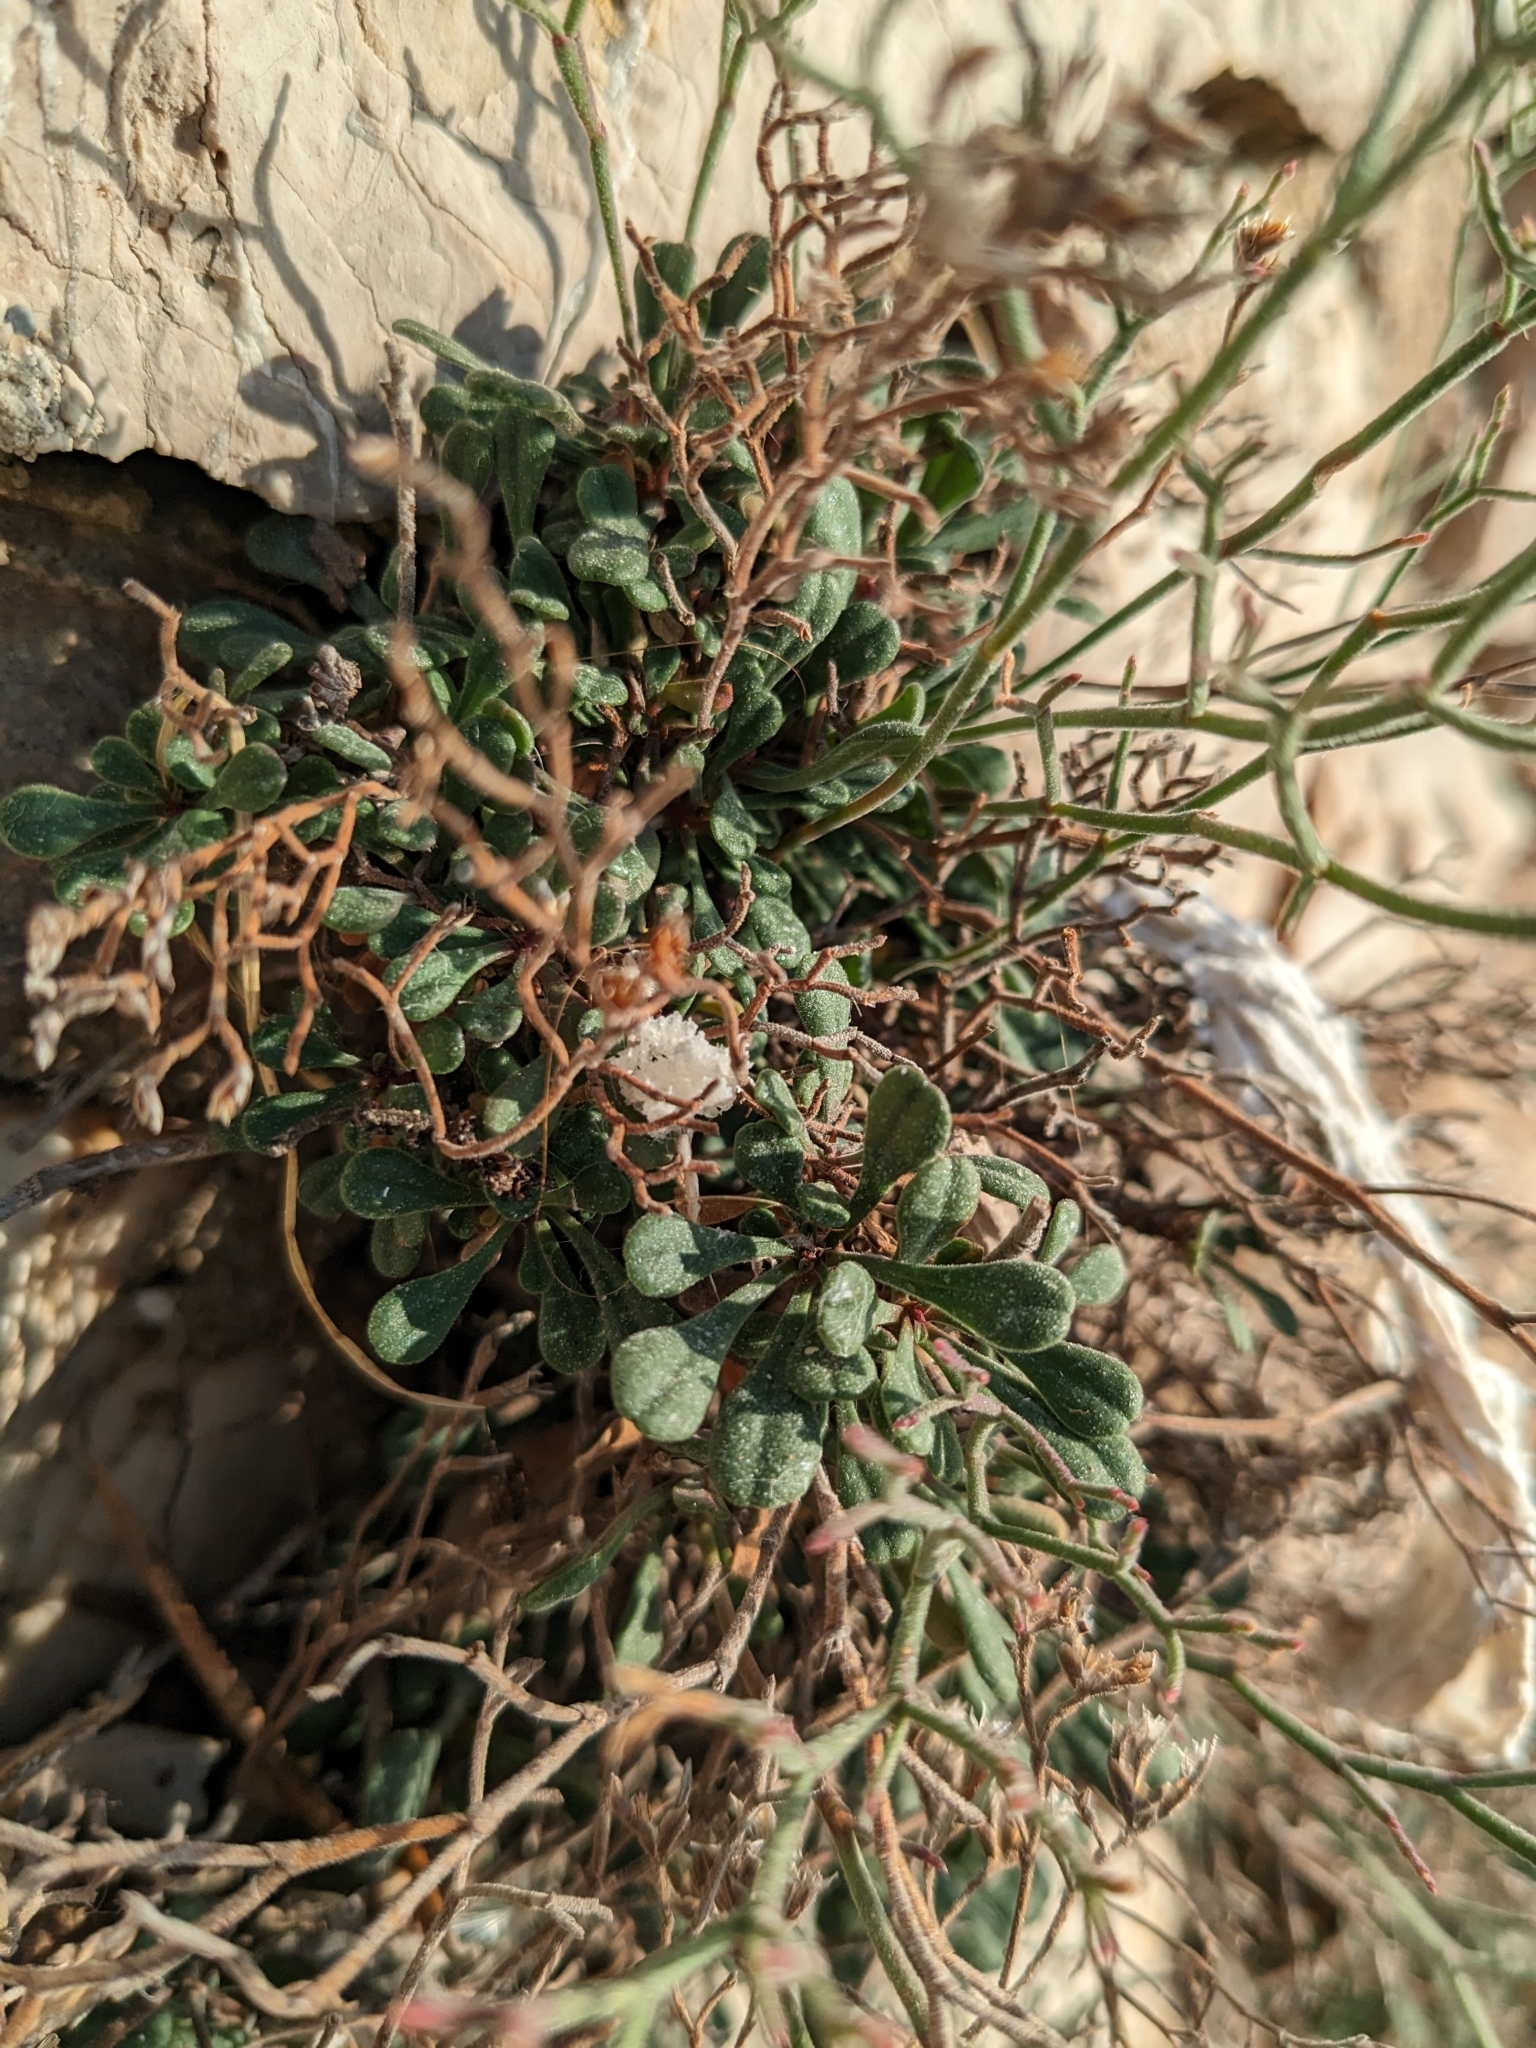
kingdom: Plantae
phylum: Tracheophyta
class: Magnoliopsida
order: Caryophyllales
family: Plumbaginaceae
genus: Limonium
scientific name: Limonium cordatum
